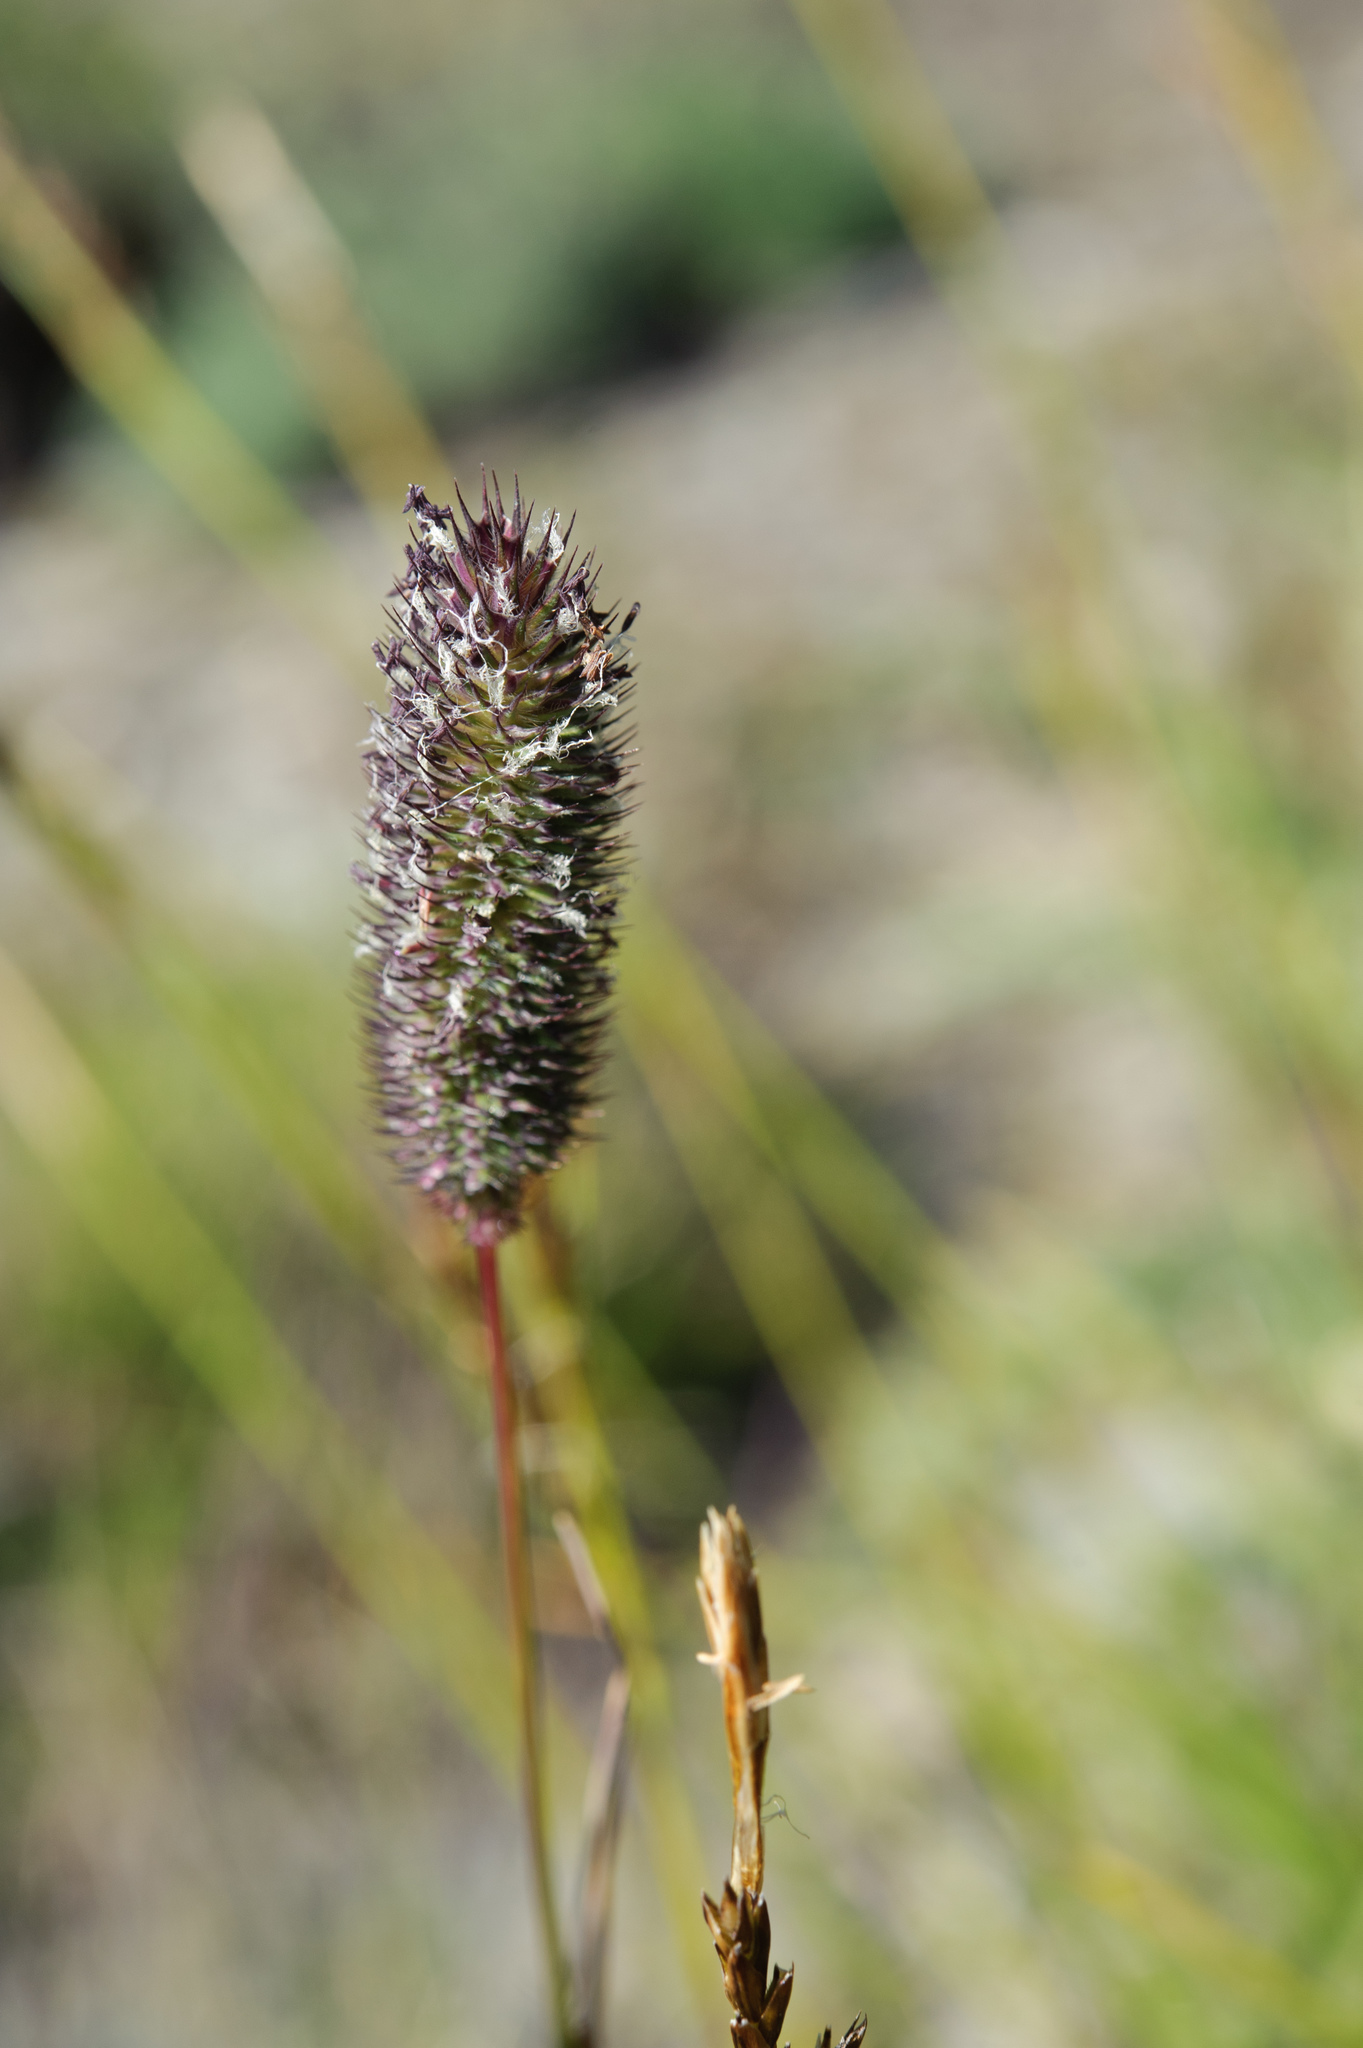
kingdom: Plantae
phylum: Tracheophyta
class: Liliopsida
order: Poales
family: Poaceae
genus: Phleum
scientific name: Phleum alpinum
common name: Alpine cat's-tail
